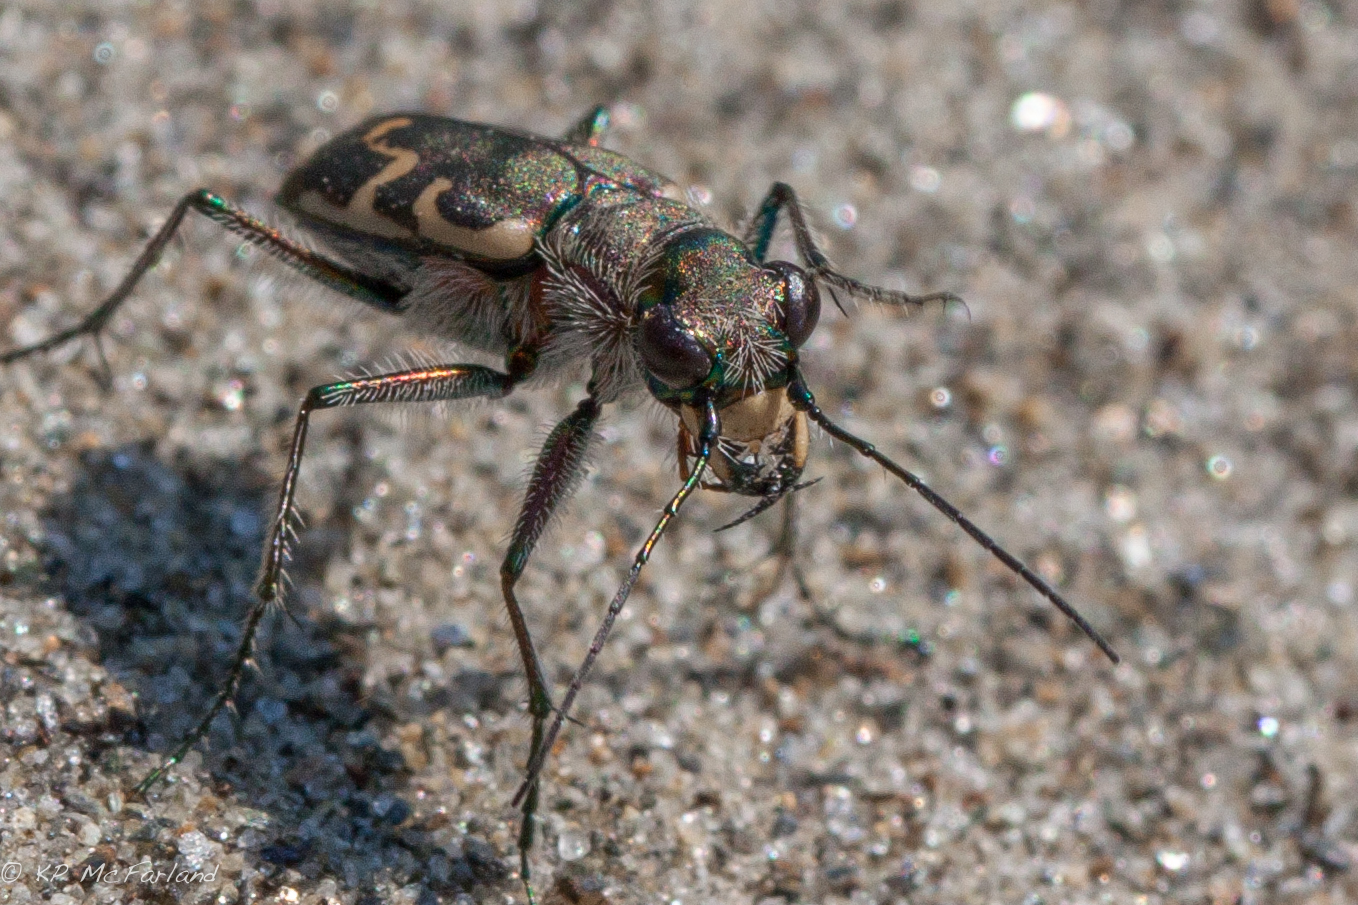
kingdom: Animalia
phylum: Arthropoda
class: Insecta
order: Coleoptera
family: Carabidae
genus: Cicindela
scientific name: Cicindela repanda
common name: Bronzed tiger beetle
